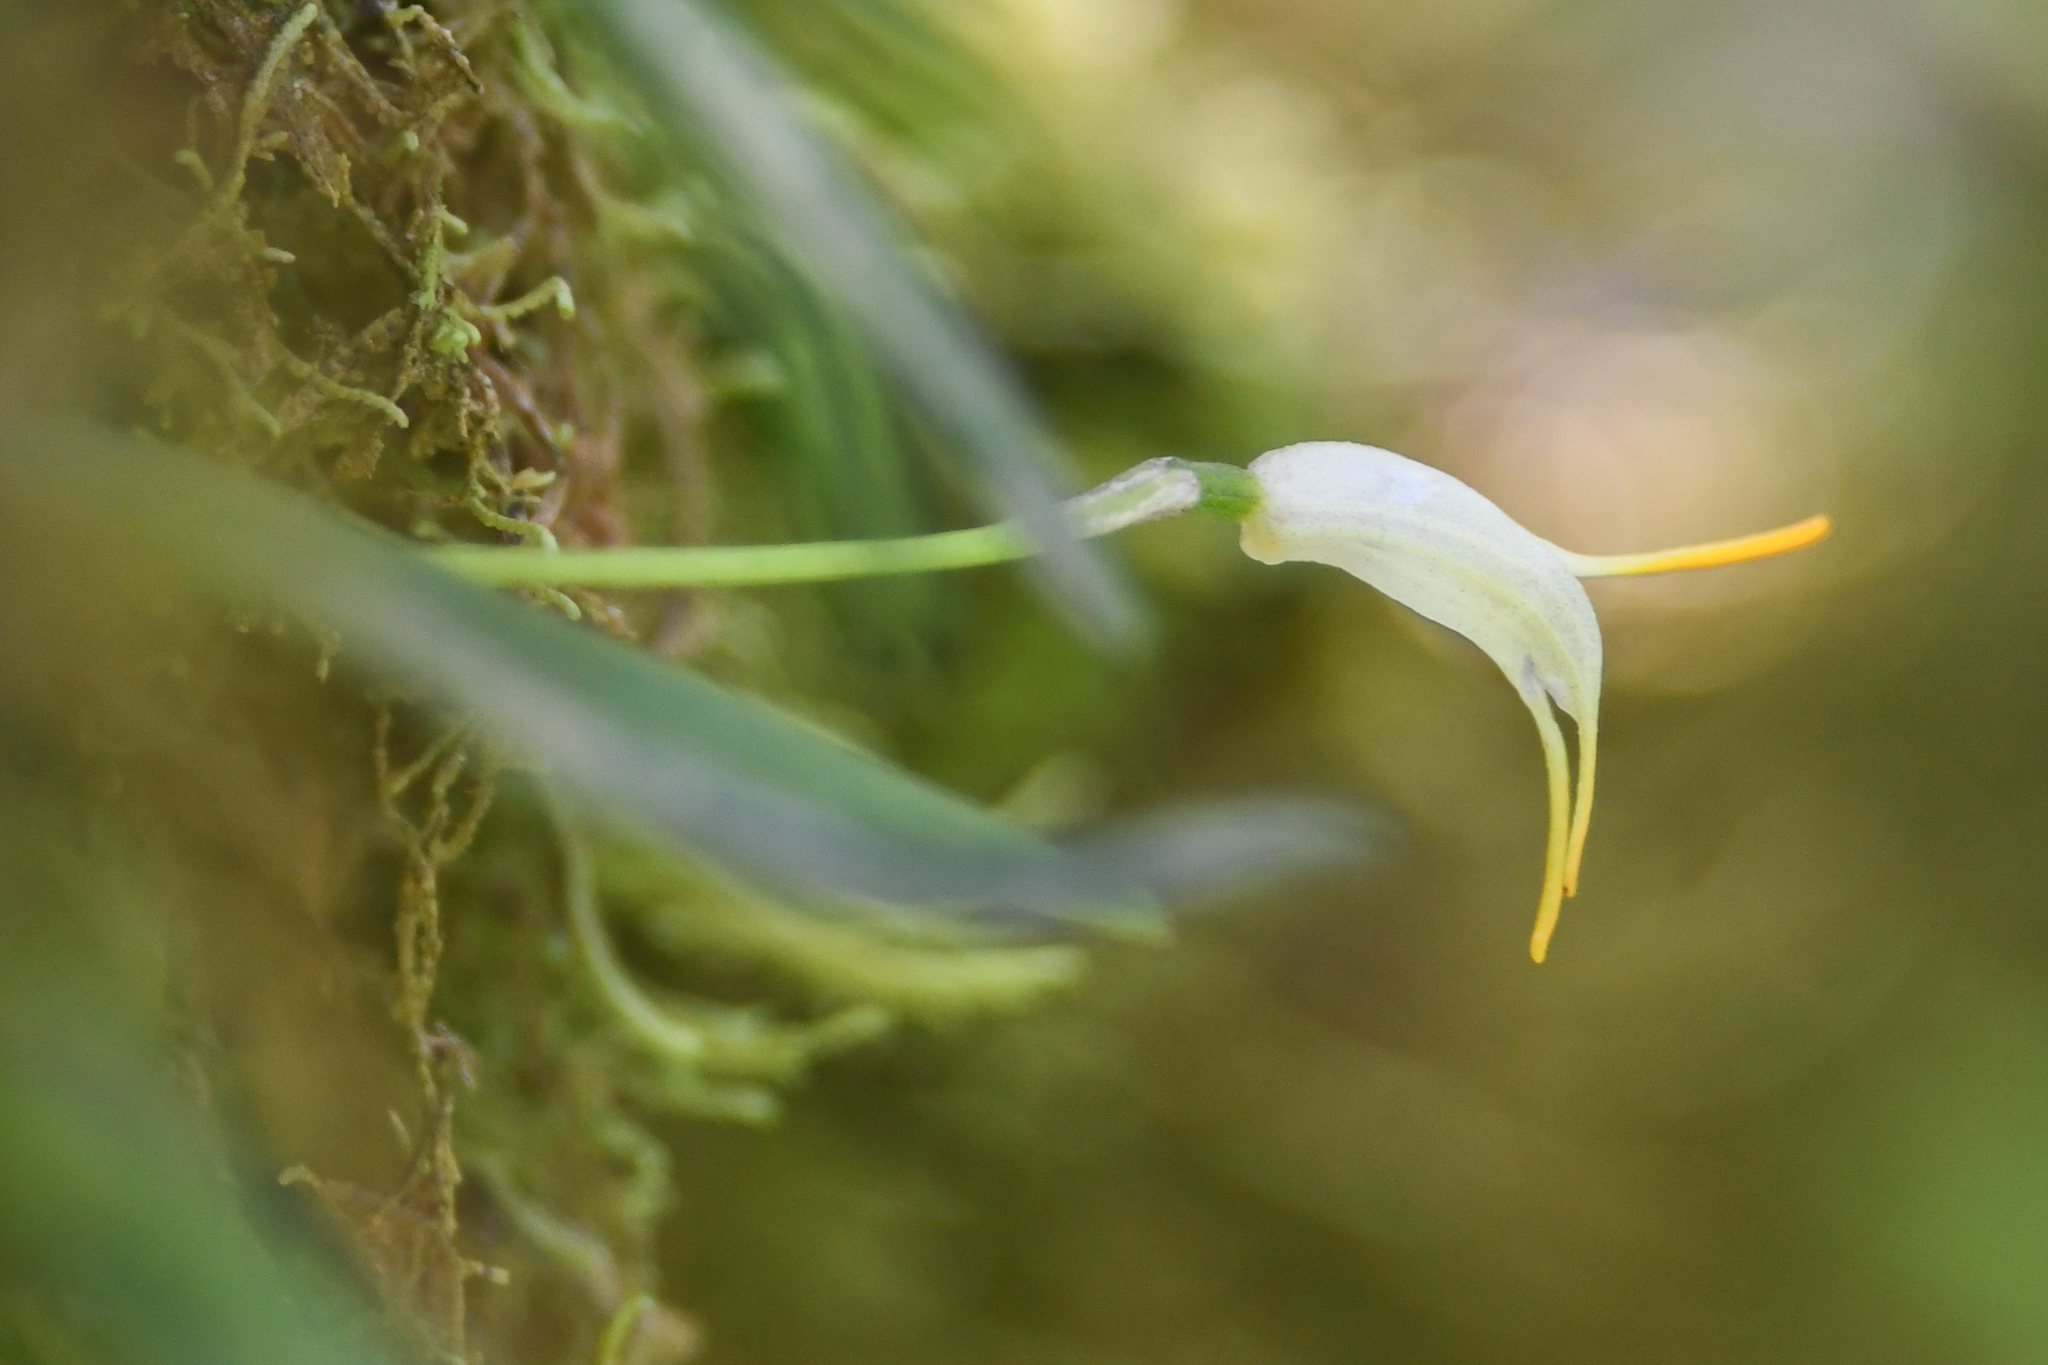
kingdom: Plantae
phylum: Tracheophyta
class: Liliopsida
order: Asparagales
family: Orchidaceae
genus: Masdevallia
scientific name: Masdevallia chontalensis
